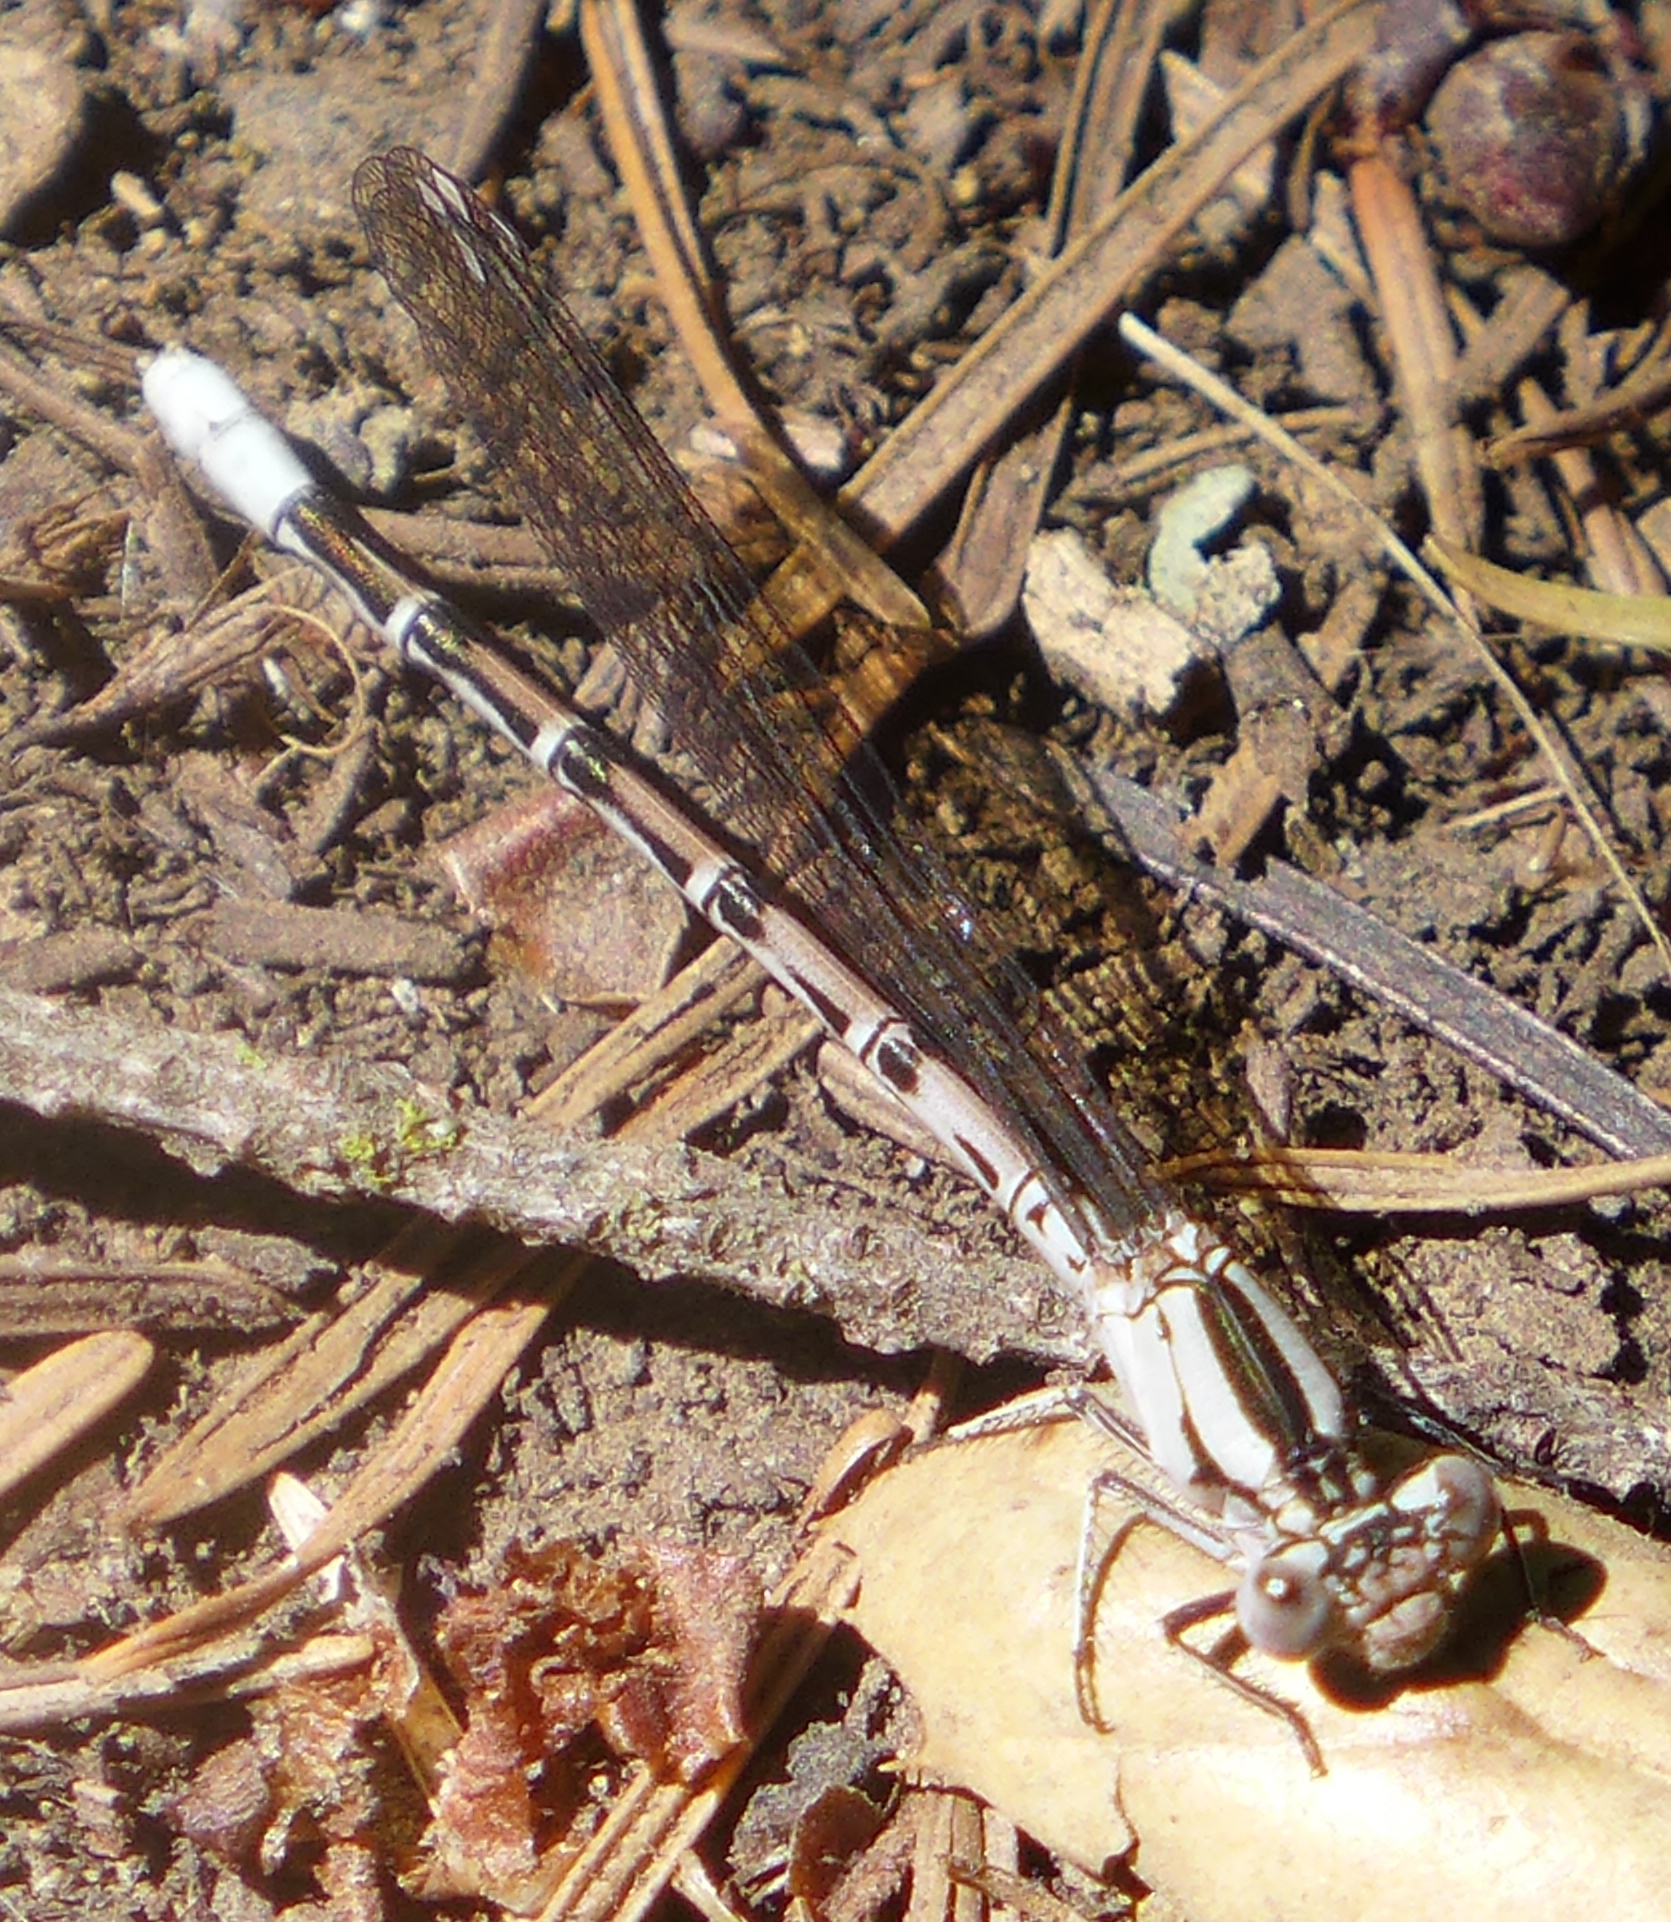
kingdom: Animalia
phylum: Arthropoda
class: Insecta
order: Odonata
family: Coenagrionidae
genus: Argia
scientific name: Argia vivida
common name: Vivid dancer
